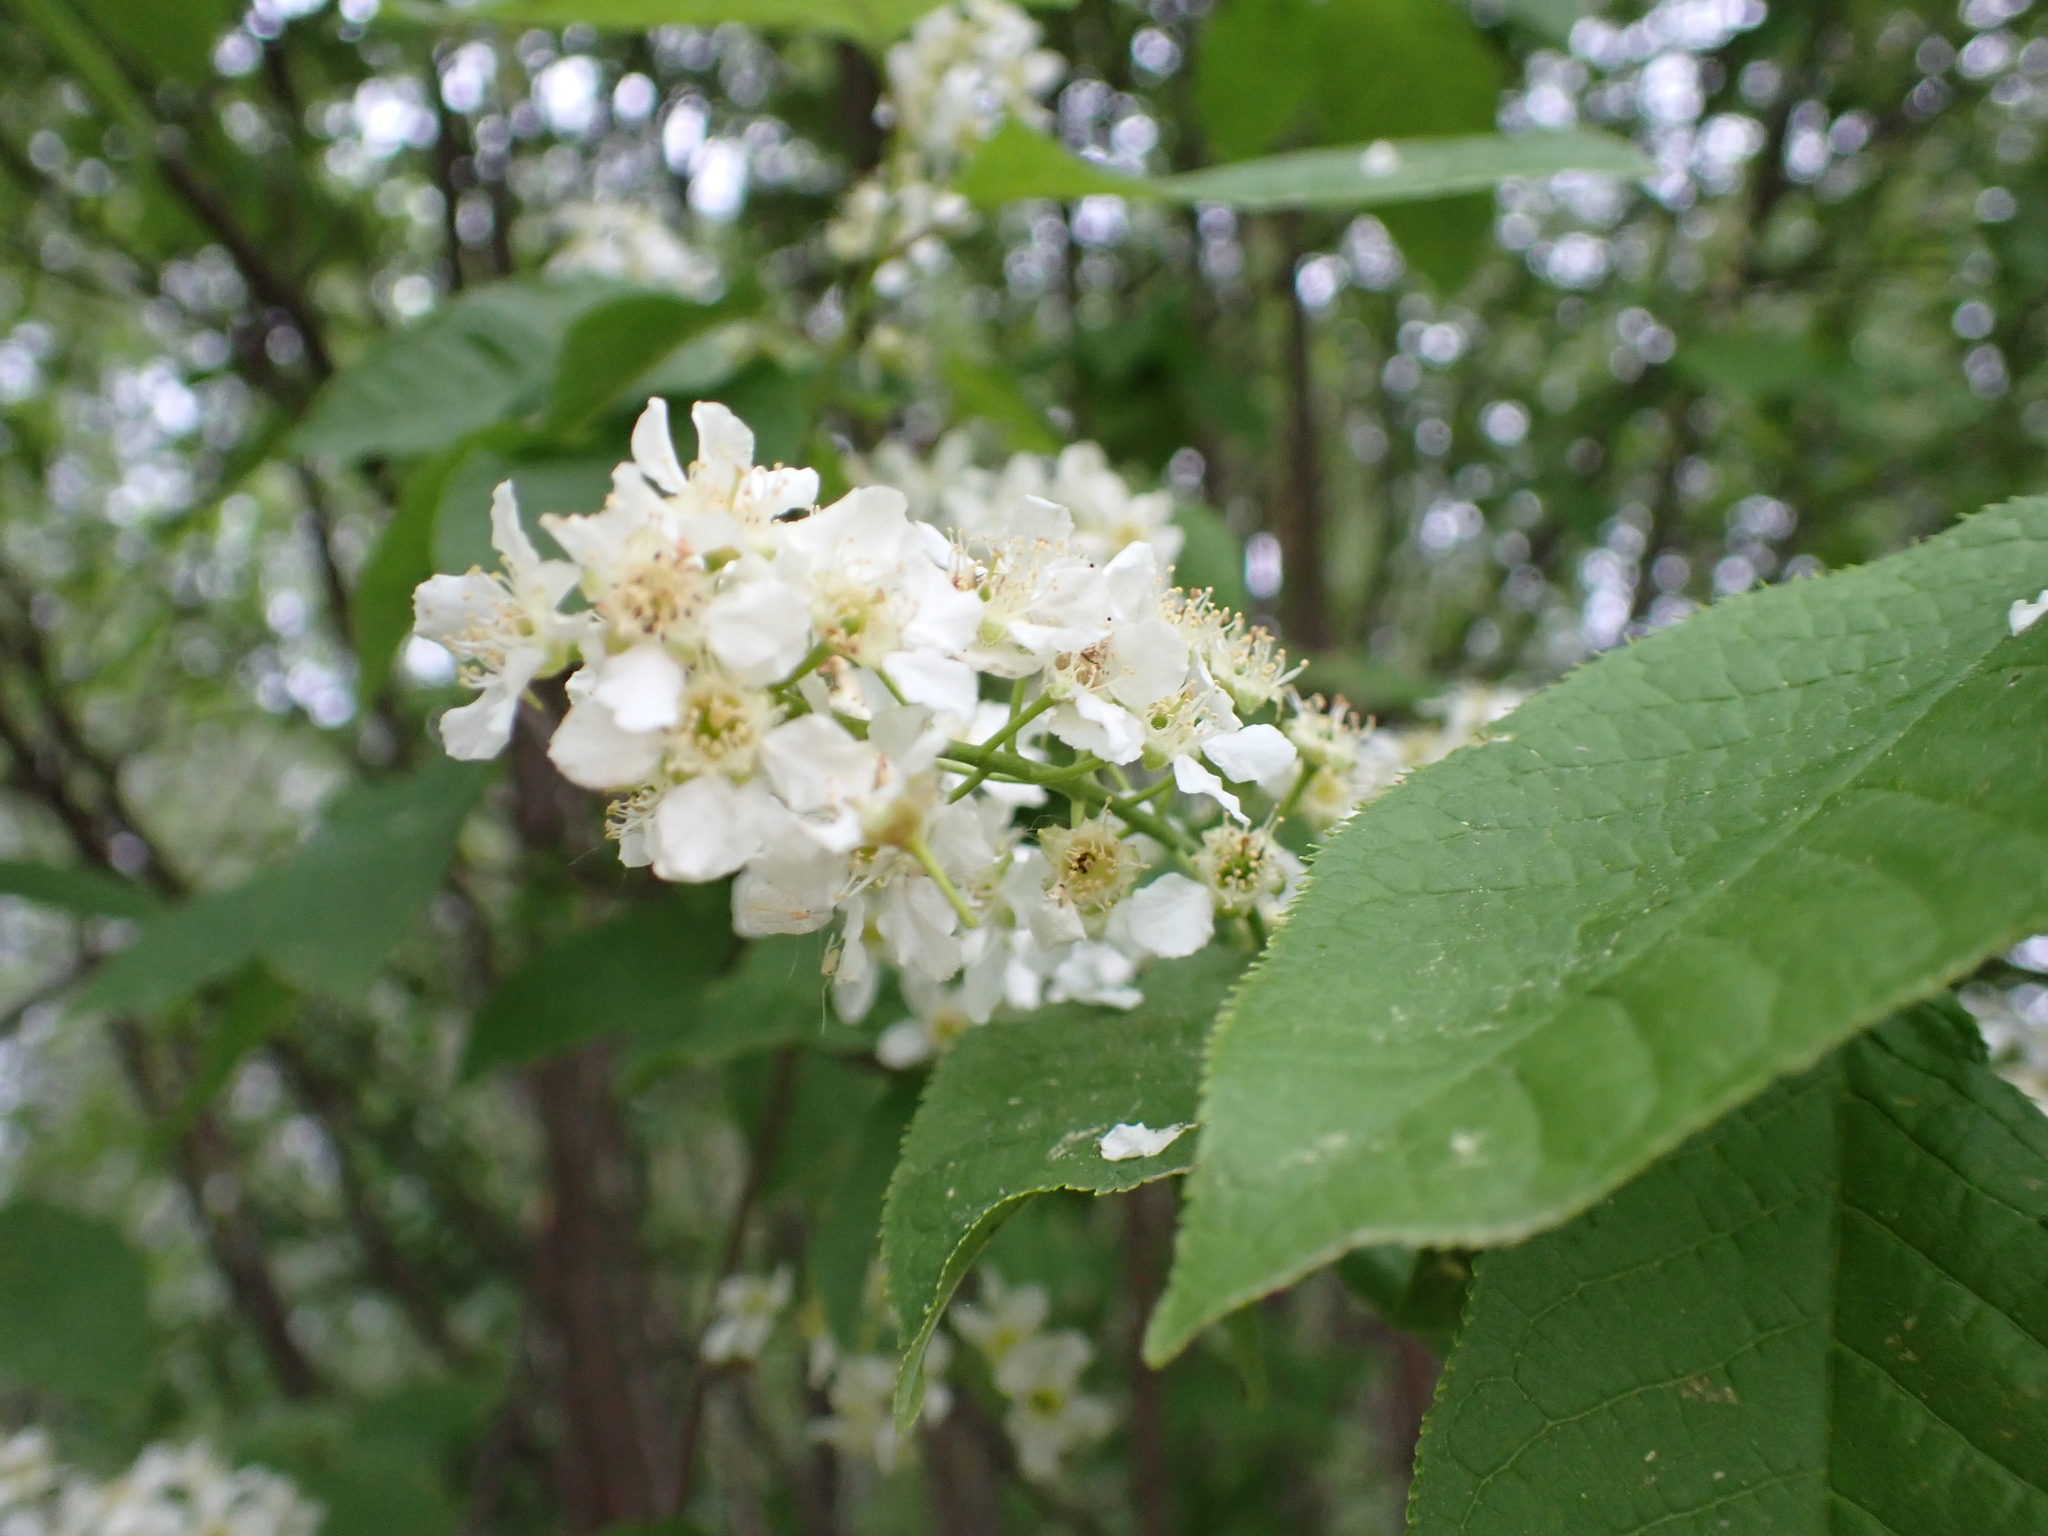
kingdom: Plantae
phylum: Tracheophyta
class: Magnoliopsida
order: Rosales
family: Rosaceae
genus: Prunus
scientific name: Prunus padus
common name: Bird cherry
